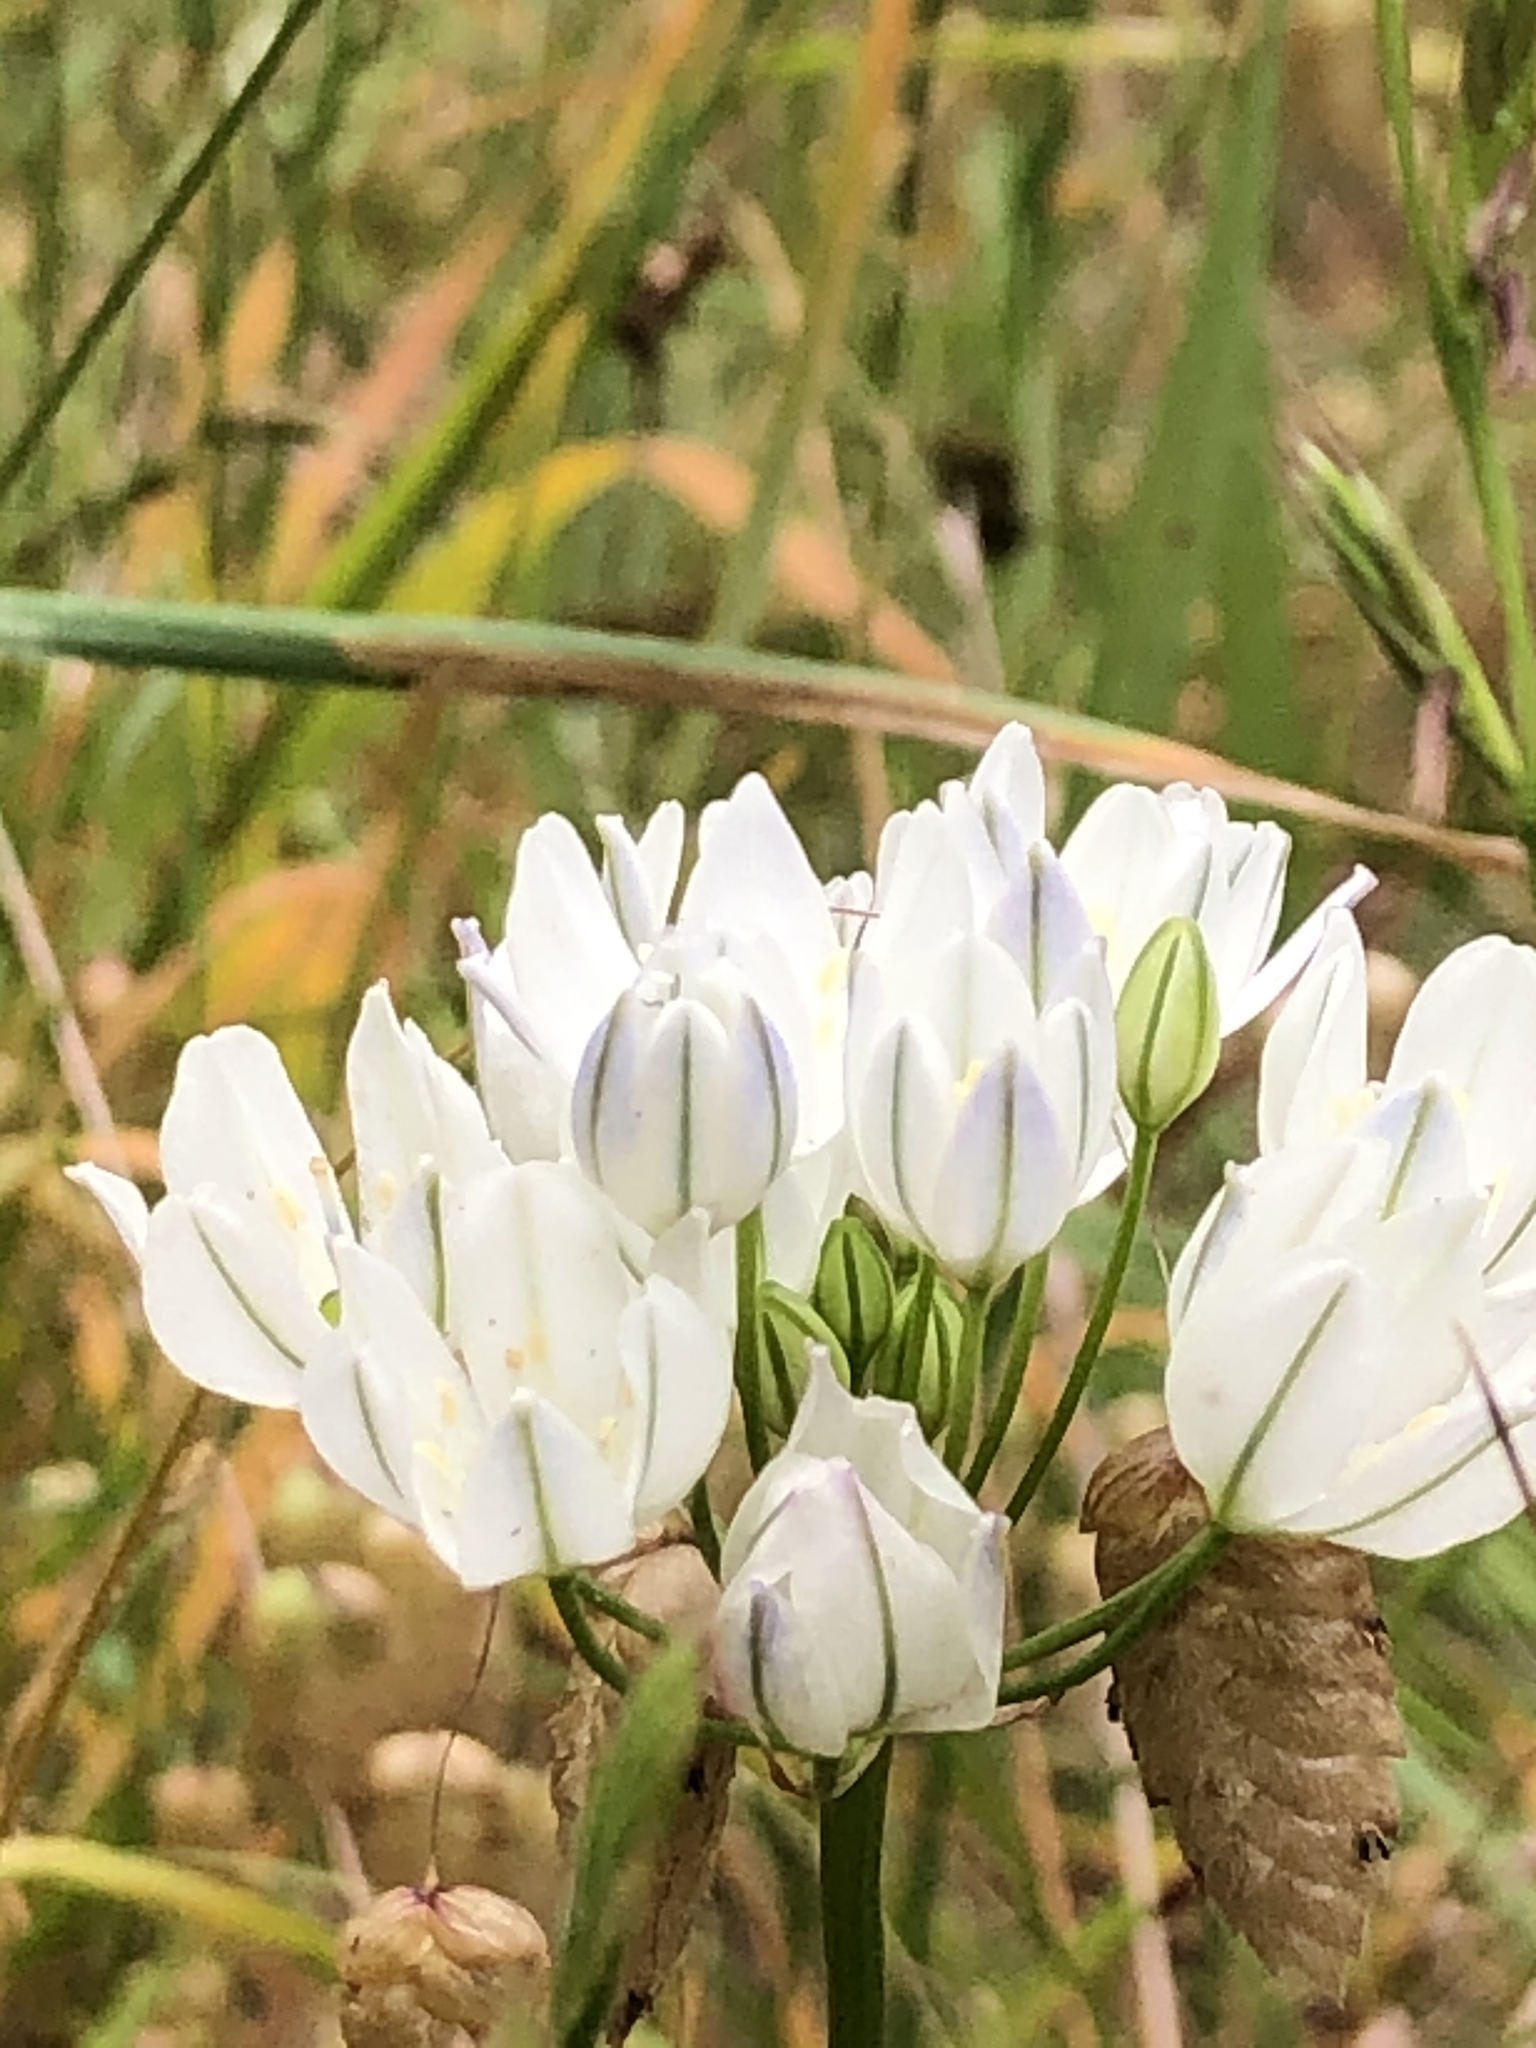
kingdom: Plantae
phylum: Tracheophyta
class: Liliopsida
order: Asparagales
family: Asparagaceae
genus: Triteleia
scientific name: Triteleia hyacinthina
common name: White brodiaea
